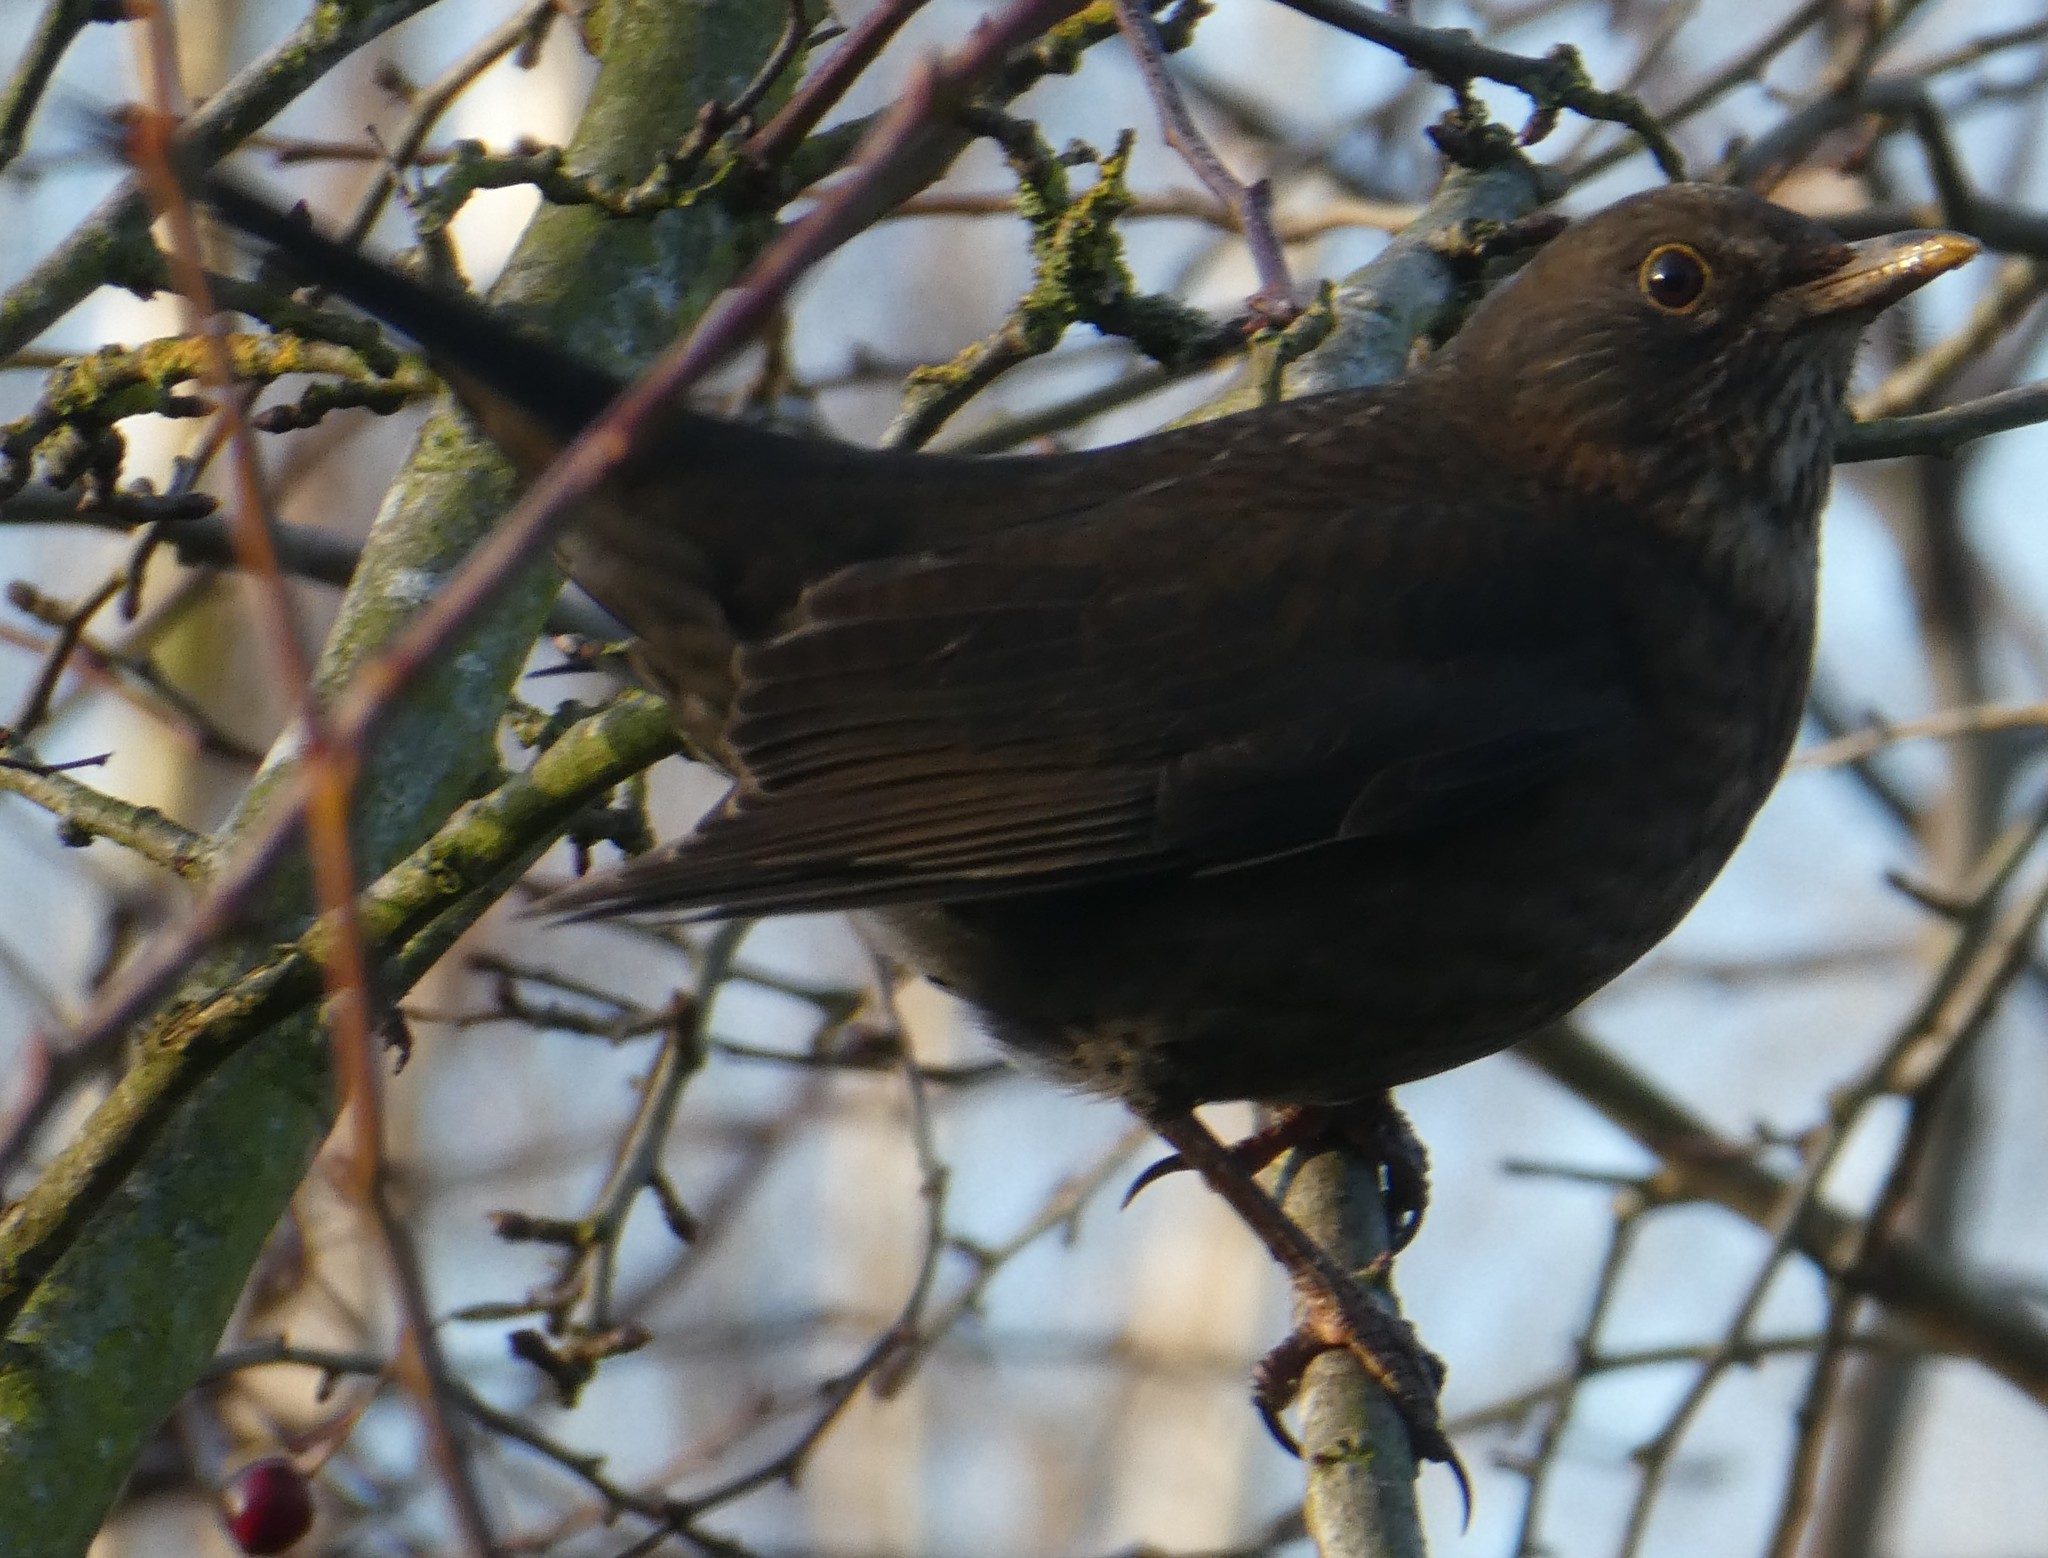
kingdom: Animalia
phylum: Chordata
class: Aves
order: Passeriformes
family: Turdidae
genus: Turdus
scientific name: Turdus merula
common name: Common blackbird
